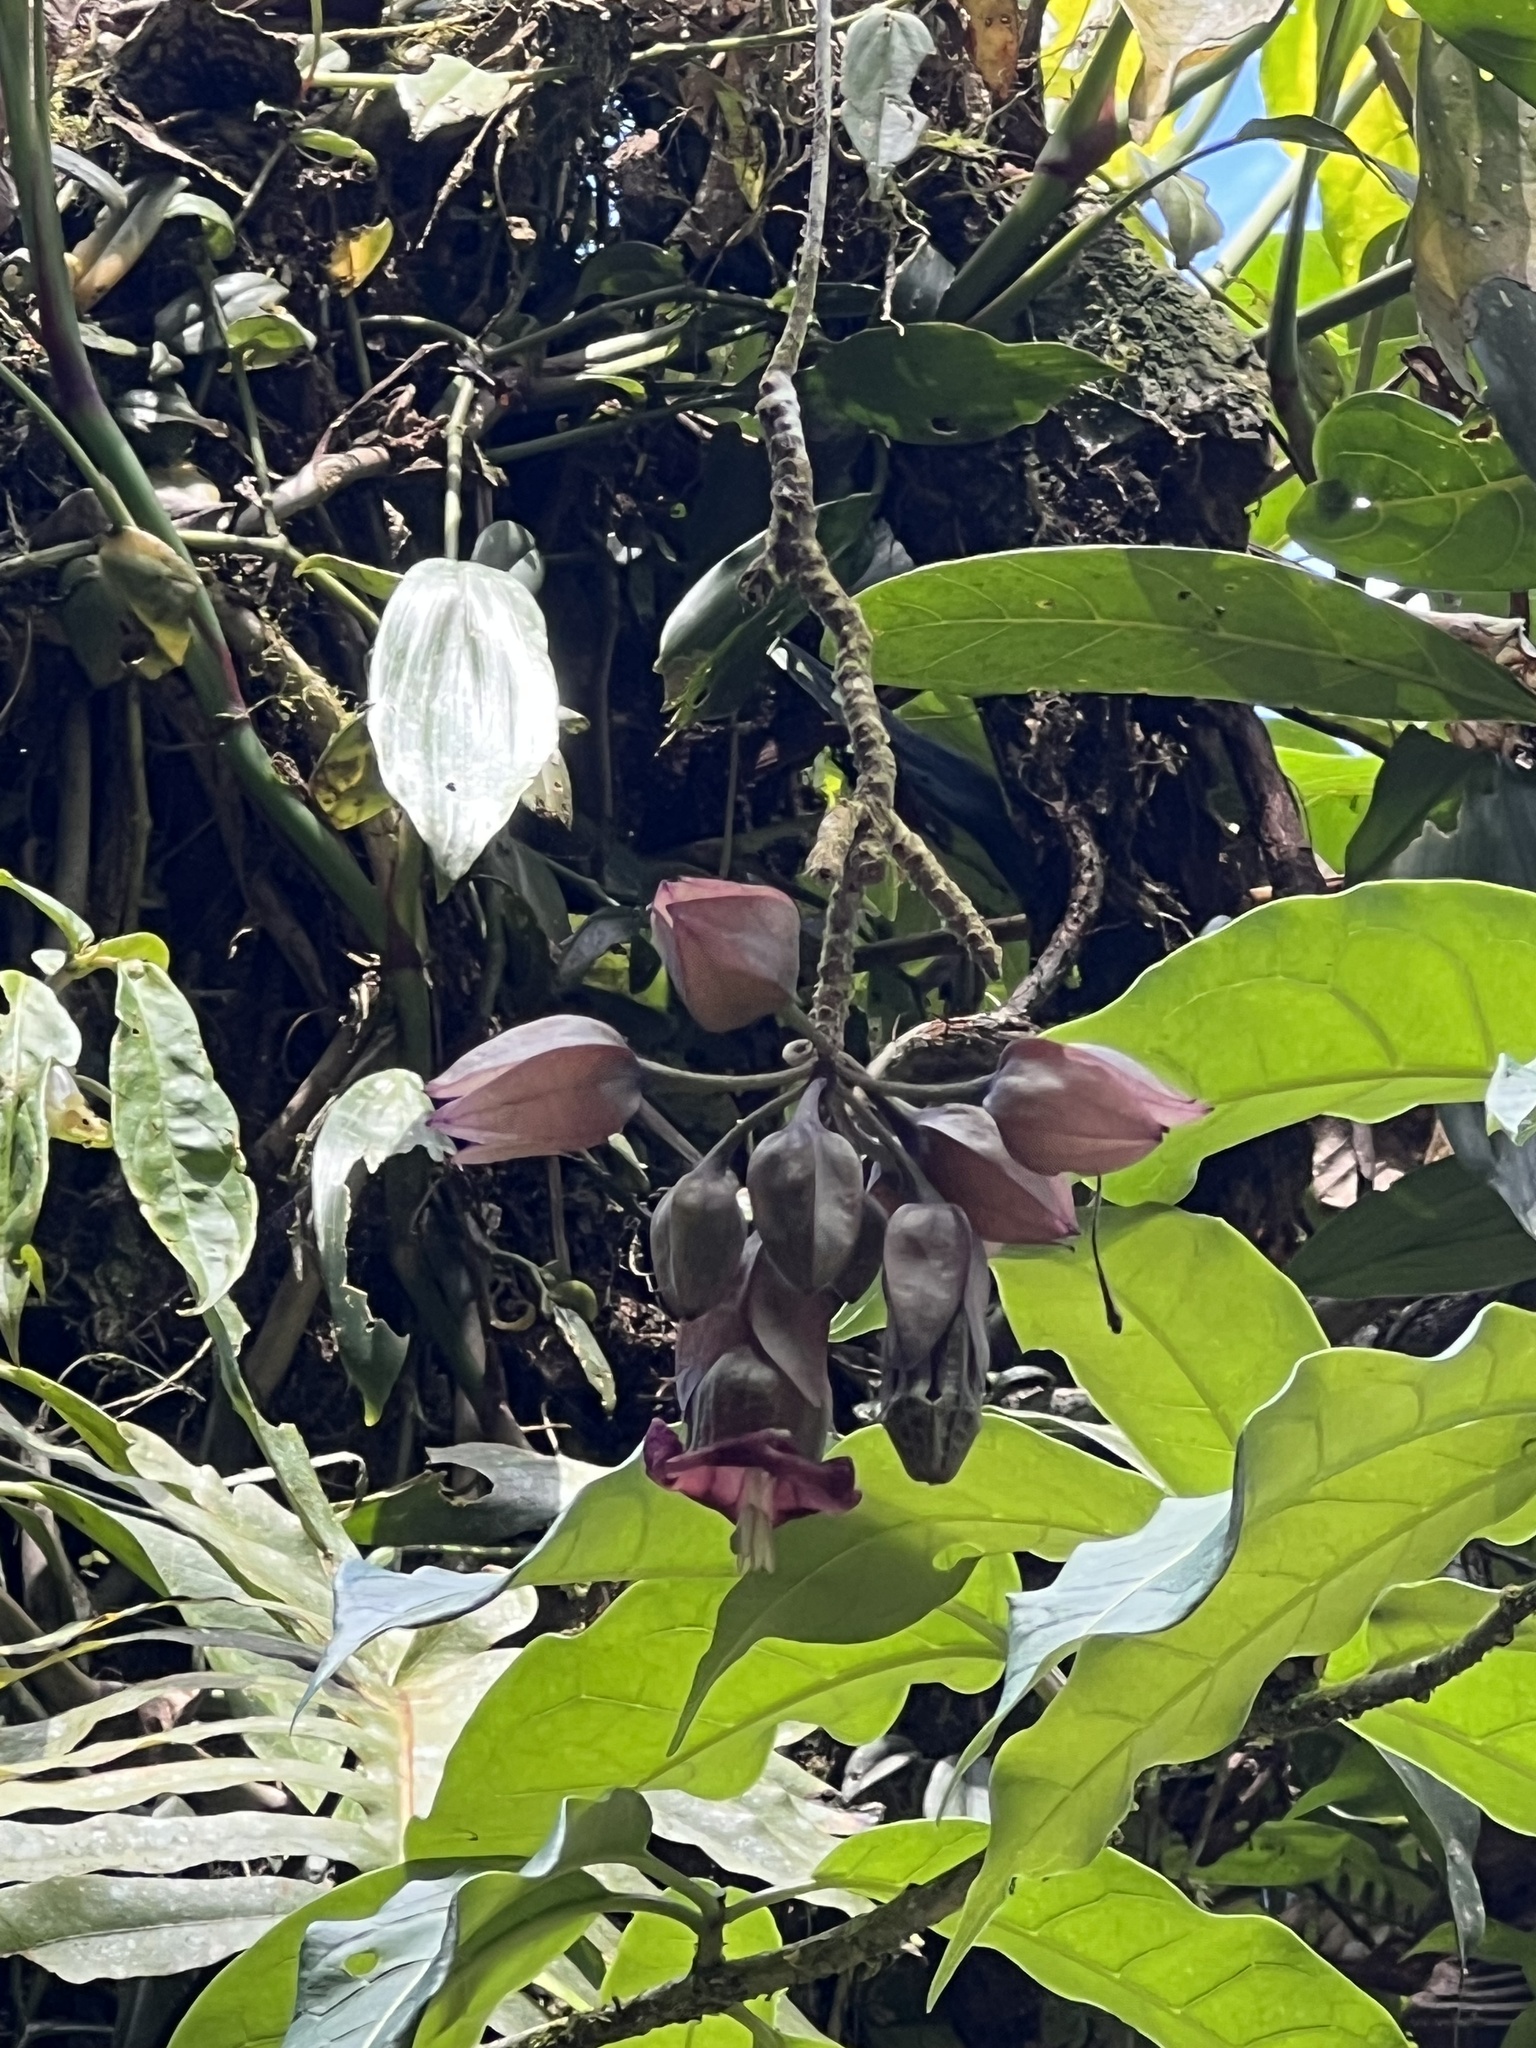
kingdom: Plantae
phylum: Tracheophyta
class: Magnoliopsida
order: Solanales
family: Solanaceae
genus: Merinthopodium
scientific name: Merinthopodium neuranthum
